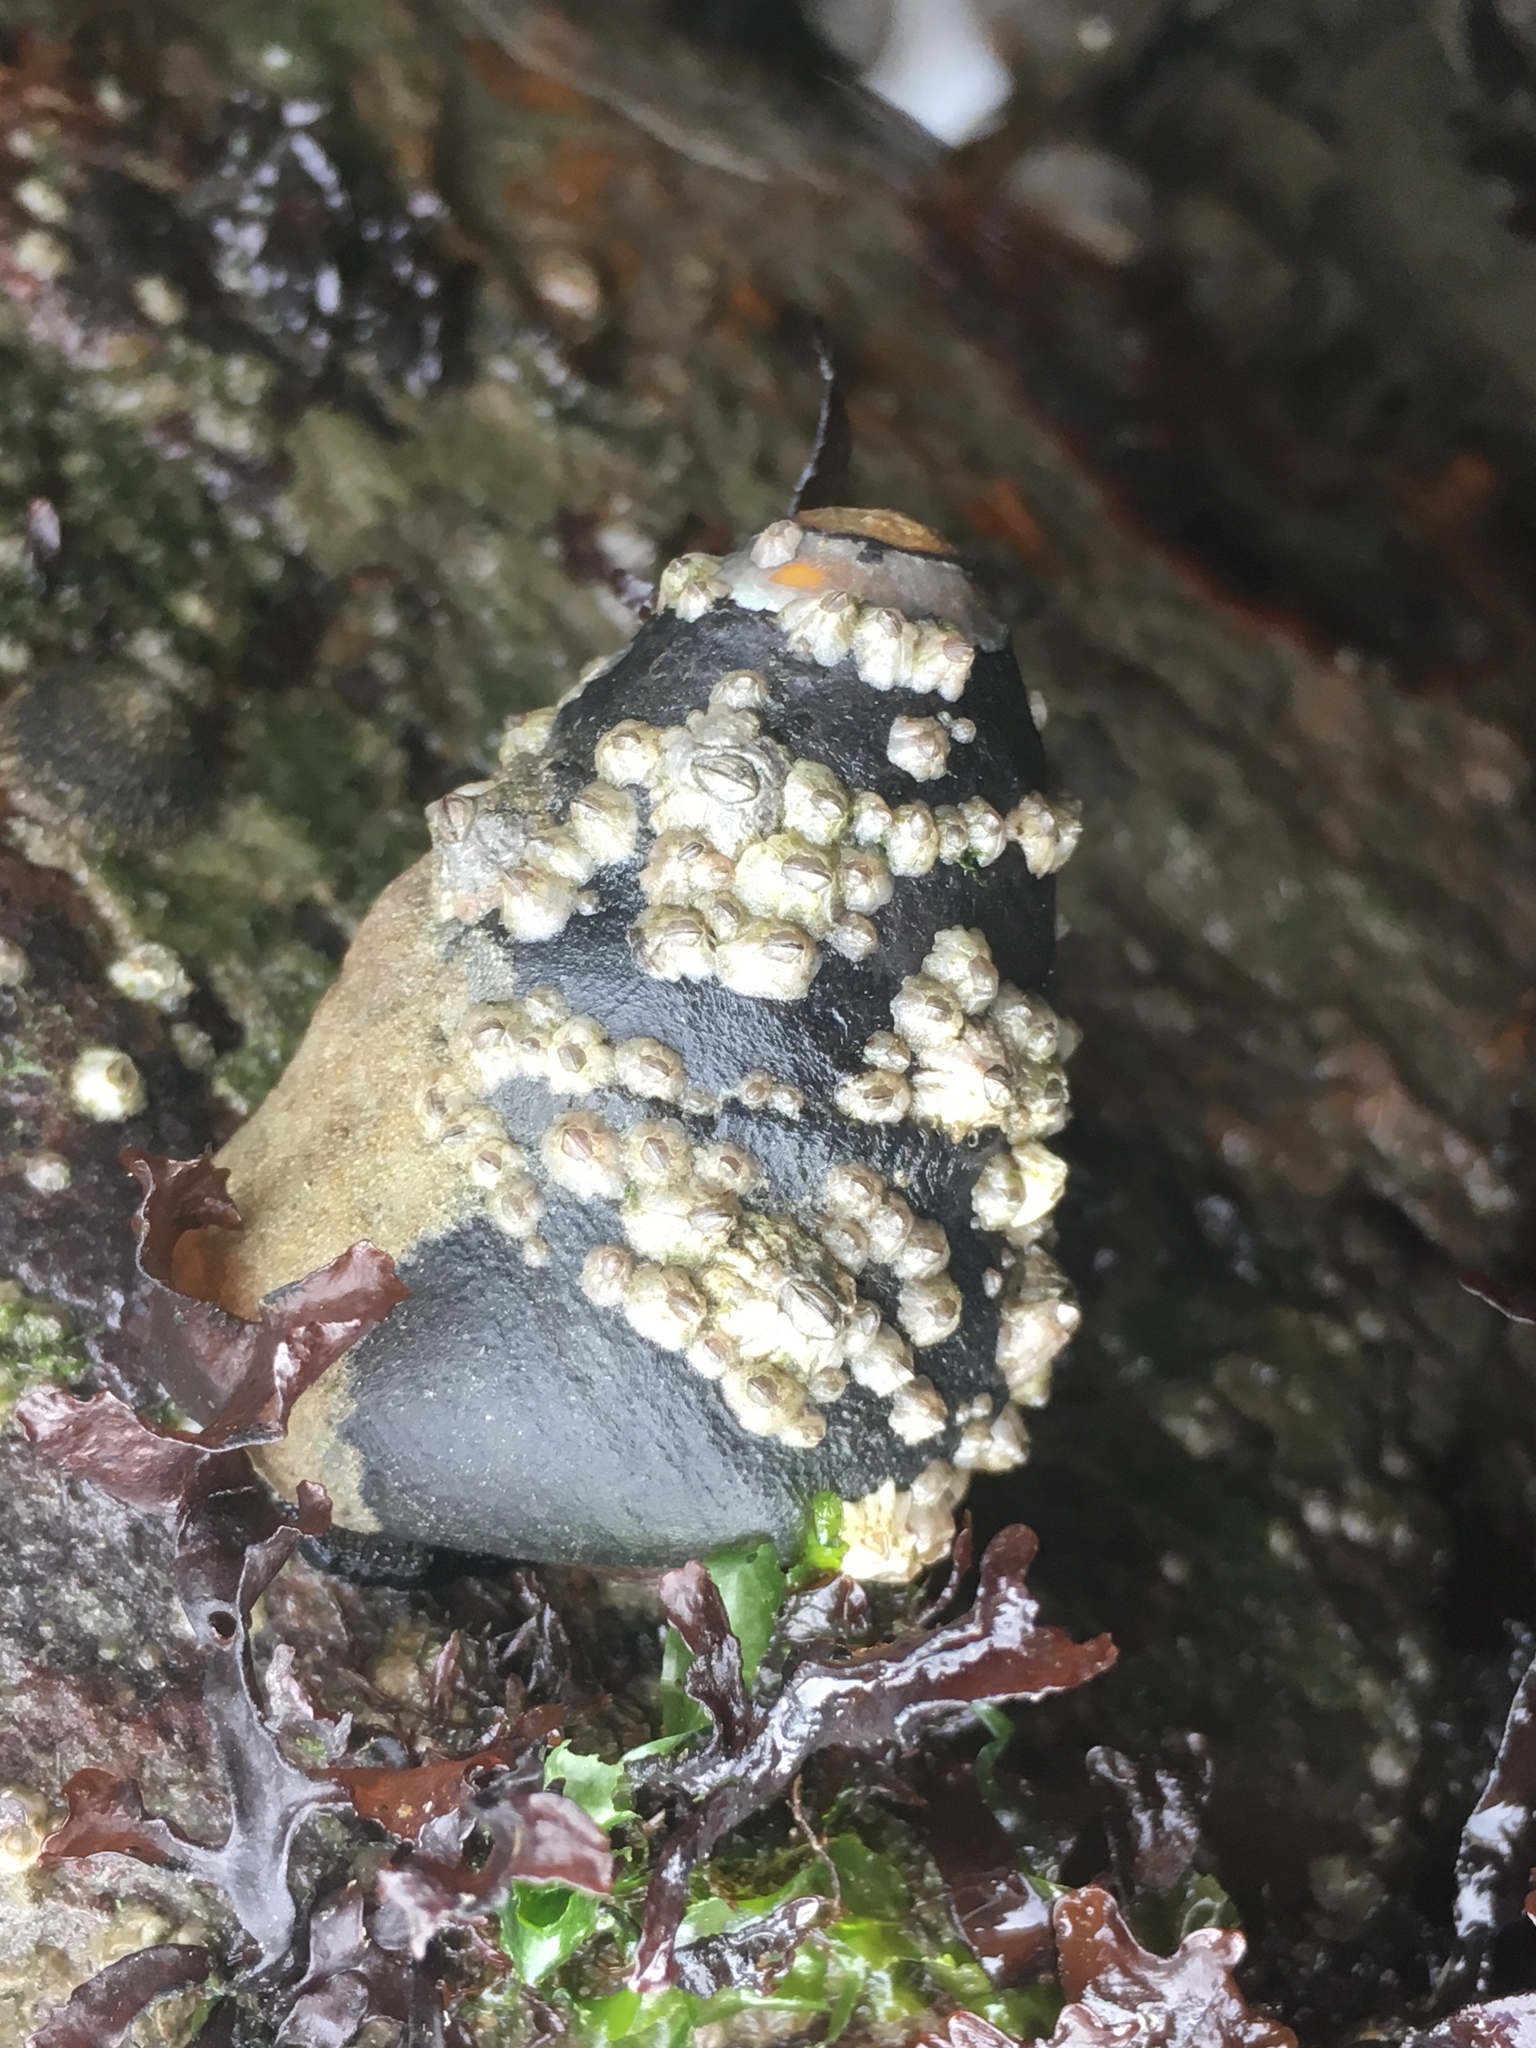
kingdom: Animalia
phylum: Mollusca
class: Gastropoda
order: Trochida
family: Tegulidae
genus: Tegula
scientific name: Tegula funebralis
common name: Black tegula
